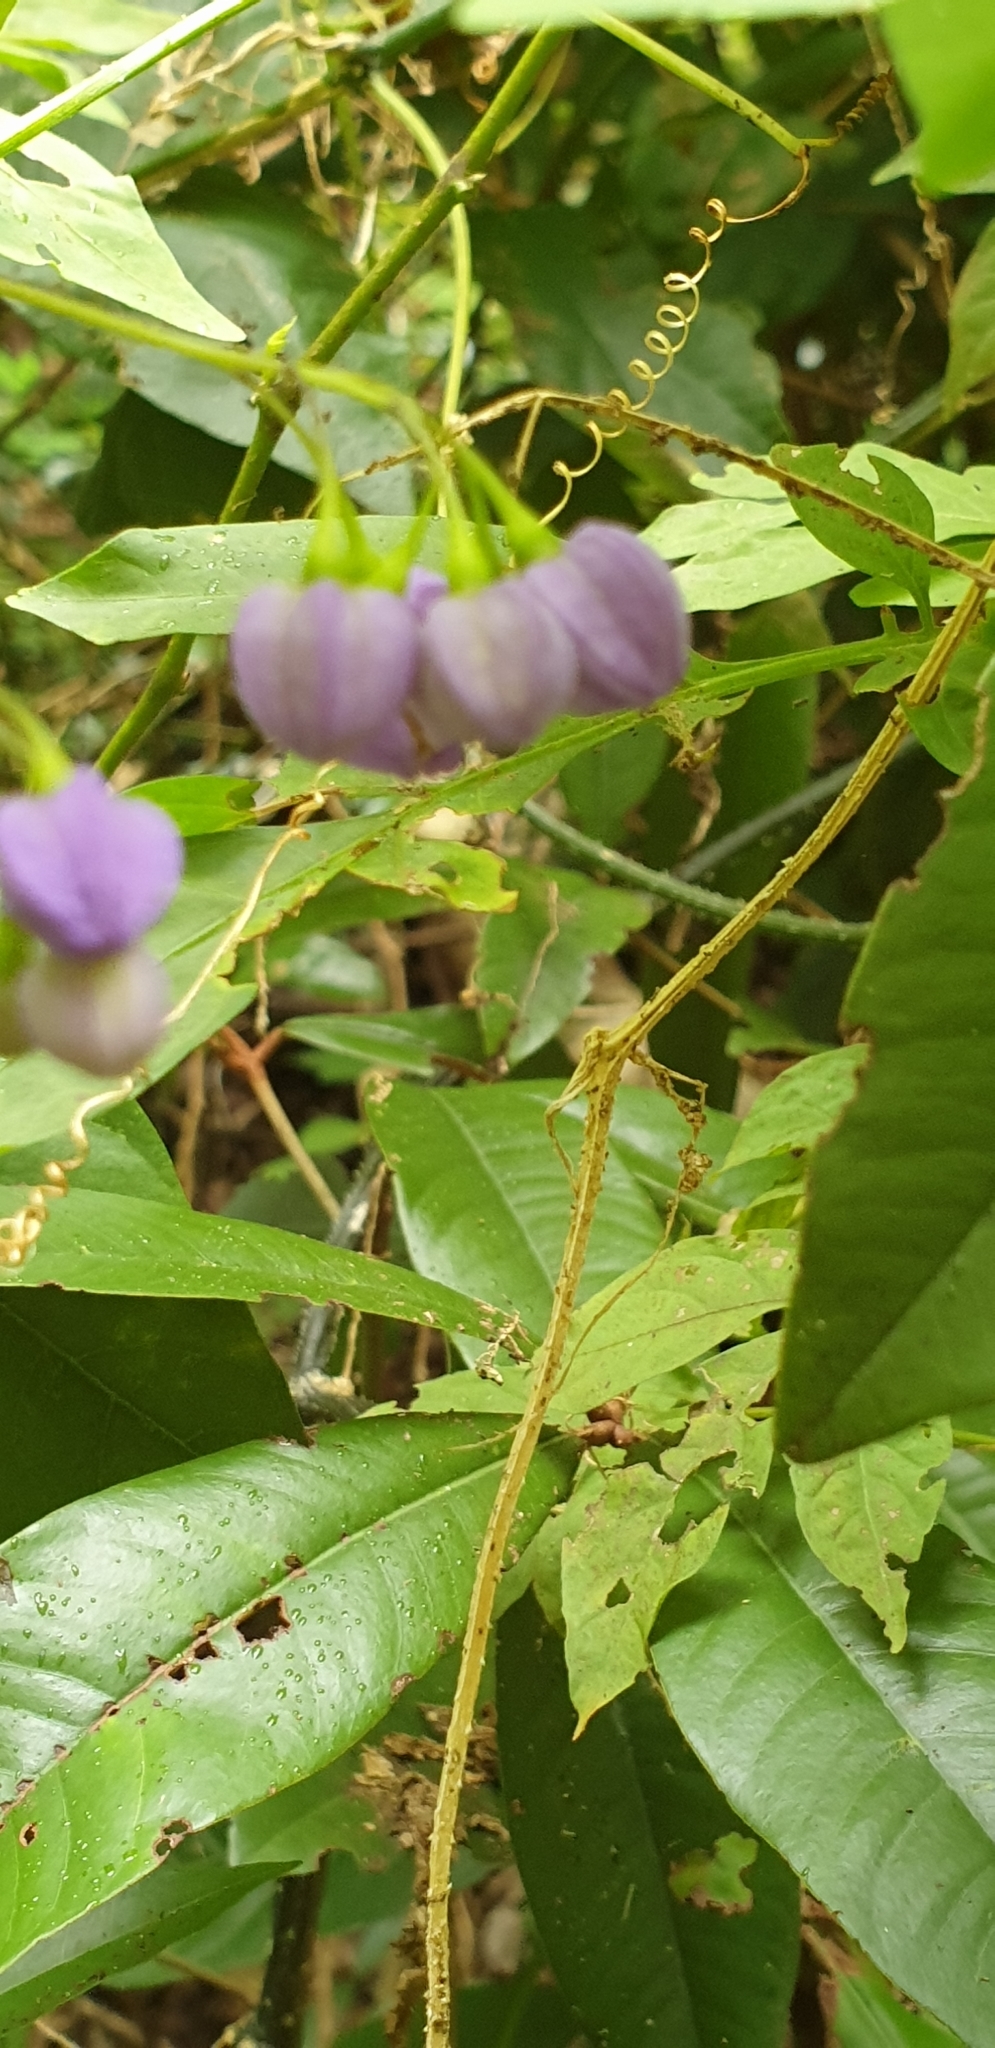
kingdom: Plantae
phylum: Tracheophyta
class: Magnoliopsida
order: Solanales
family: Solanaceae
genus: Solanum
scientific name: Solanum seaforthianum
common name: Brazilian nightshade
